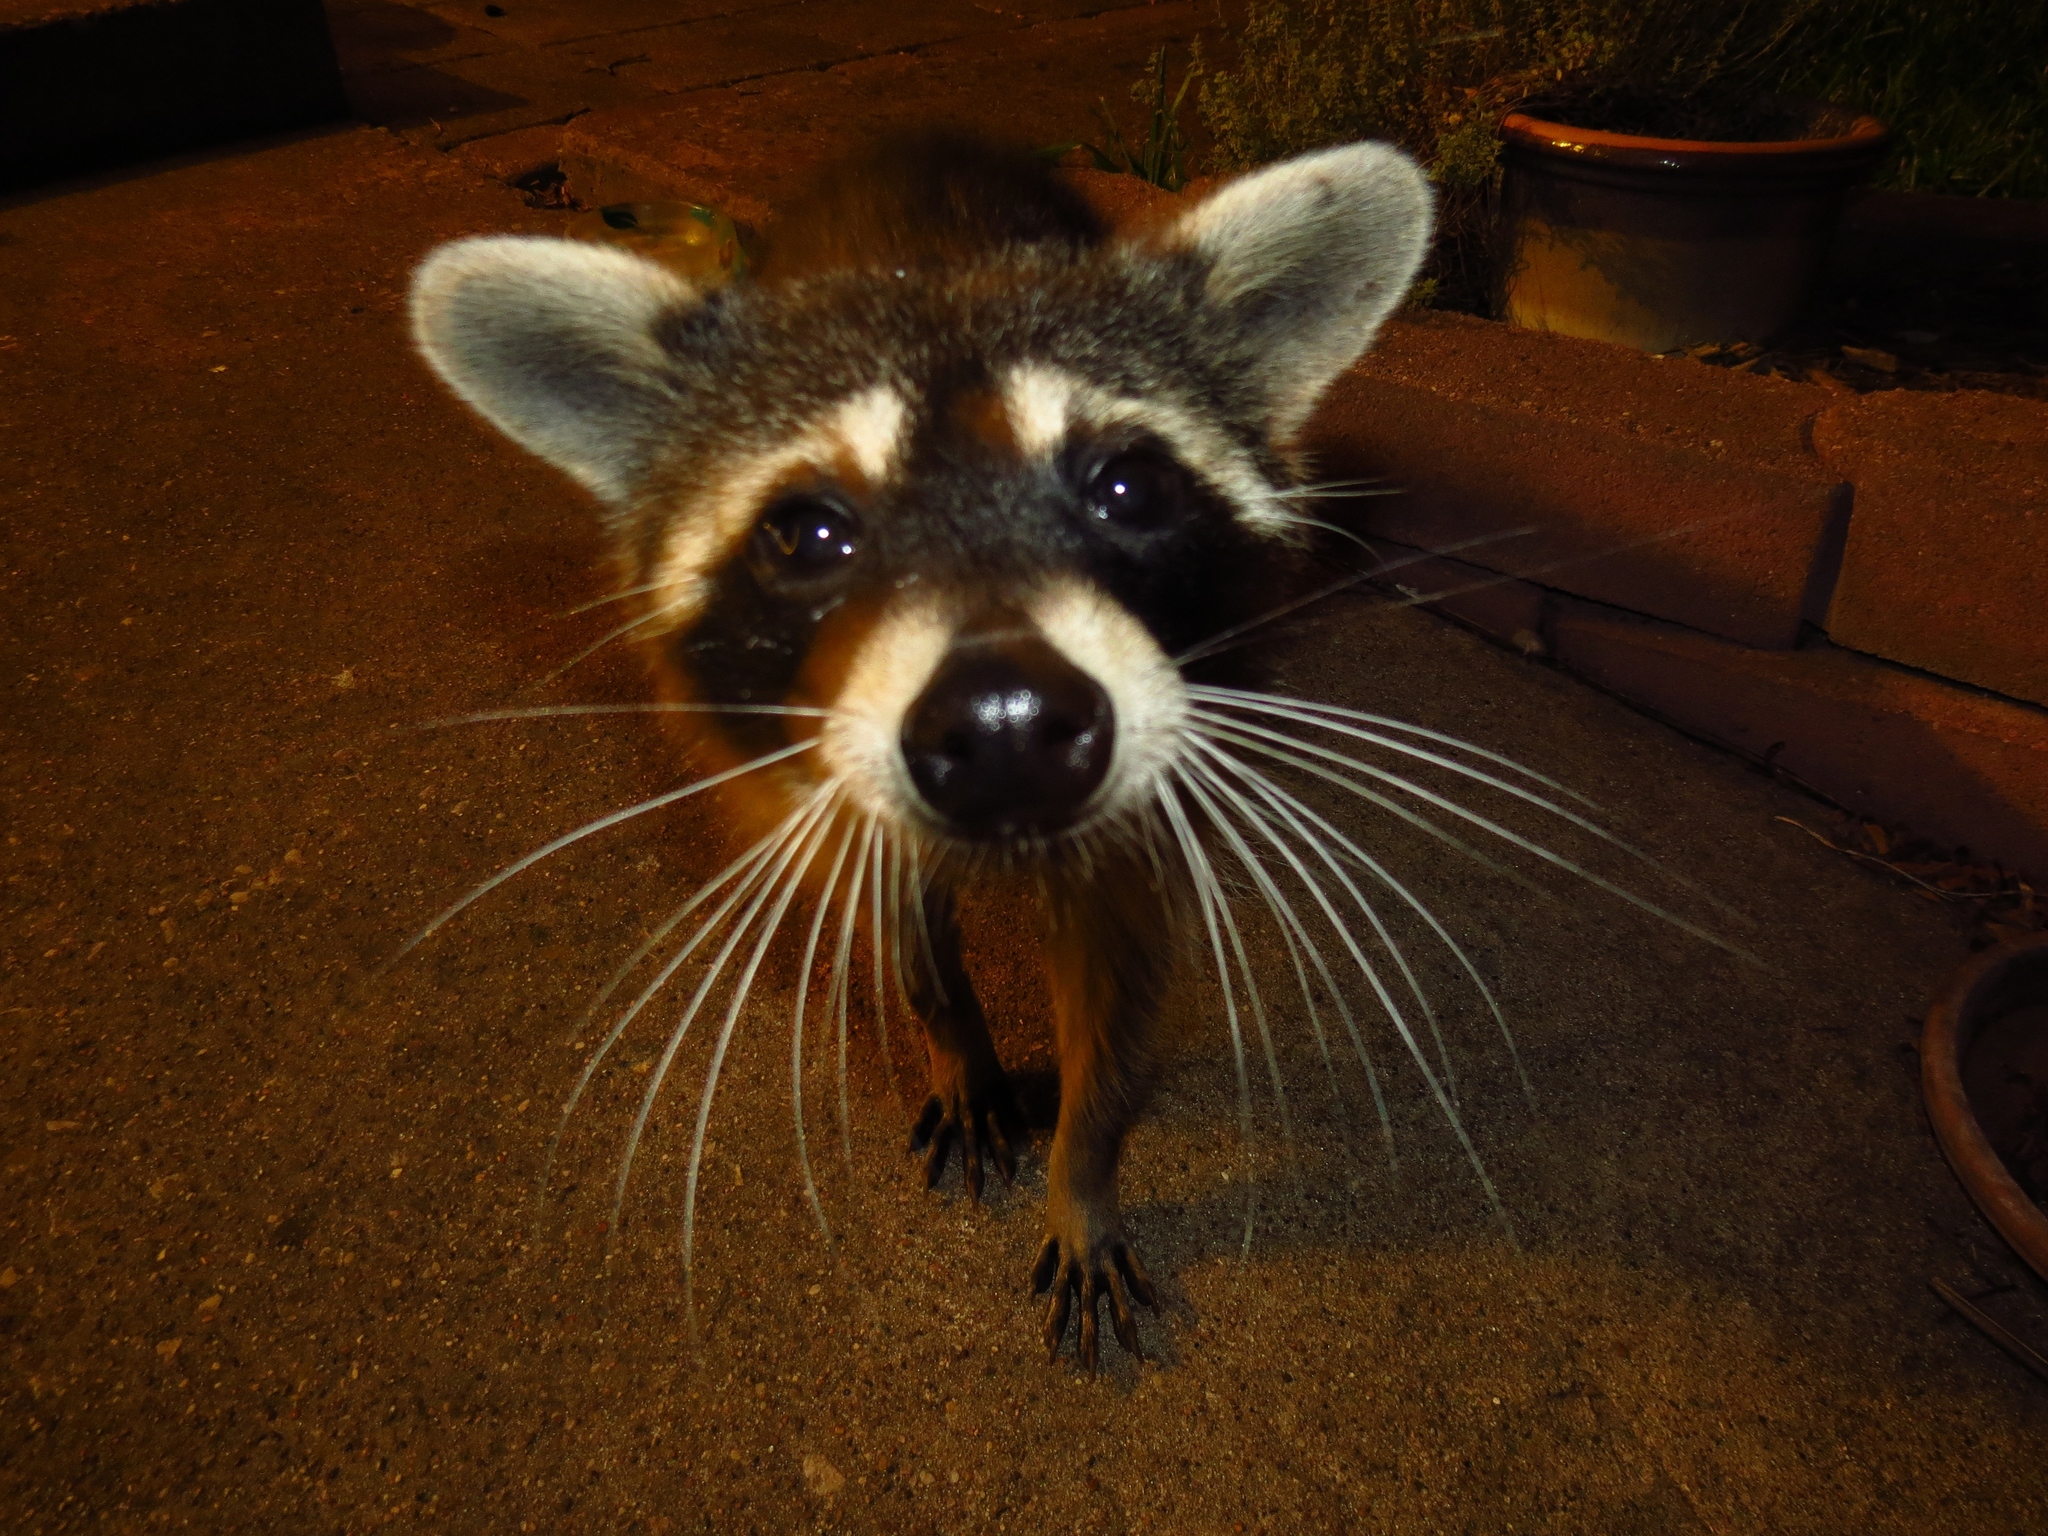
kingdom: Animalia
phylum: Chordata
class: Mammalia
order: Carnivora
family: Procyonidae
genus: Procyon
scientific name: Procyon lotor
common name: Raccoon
